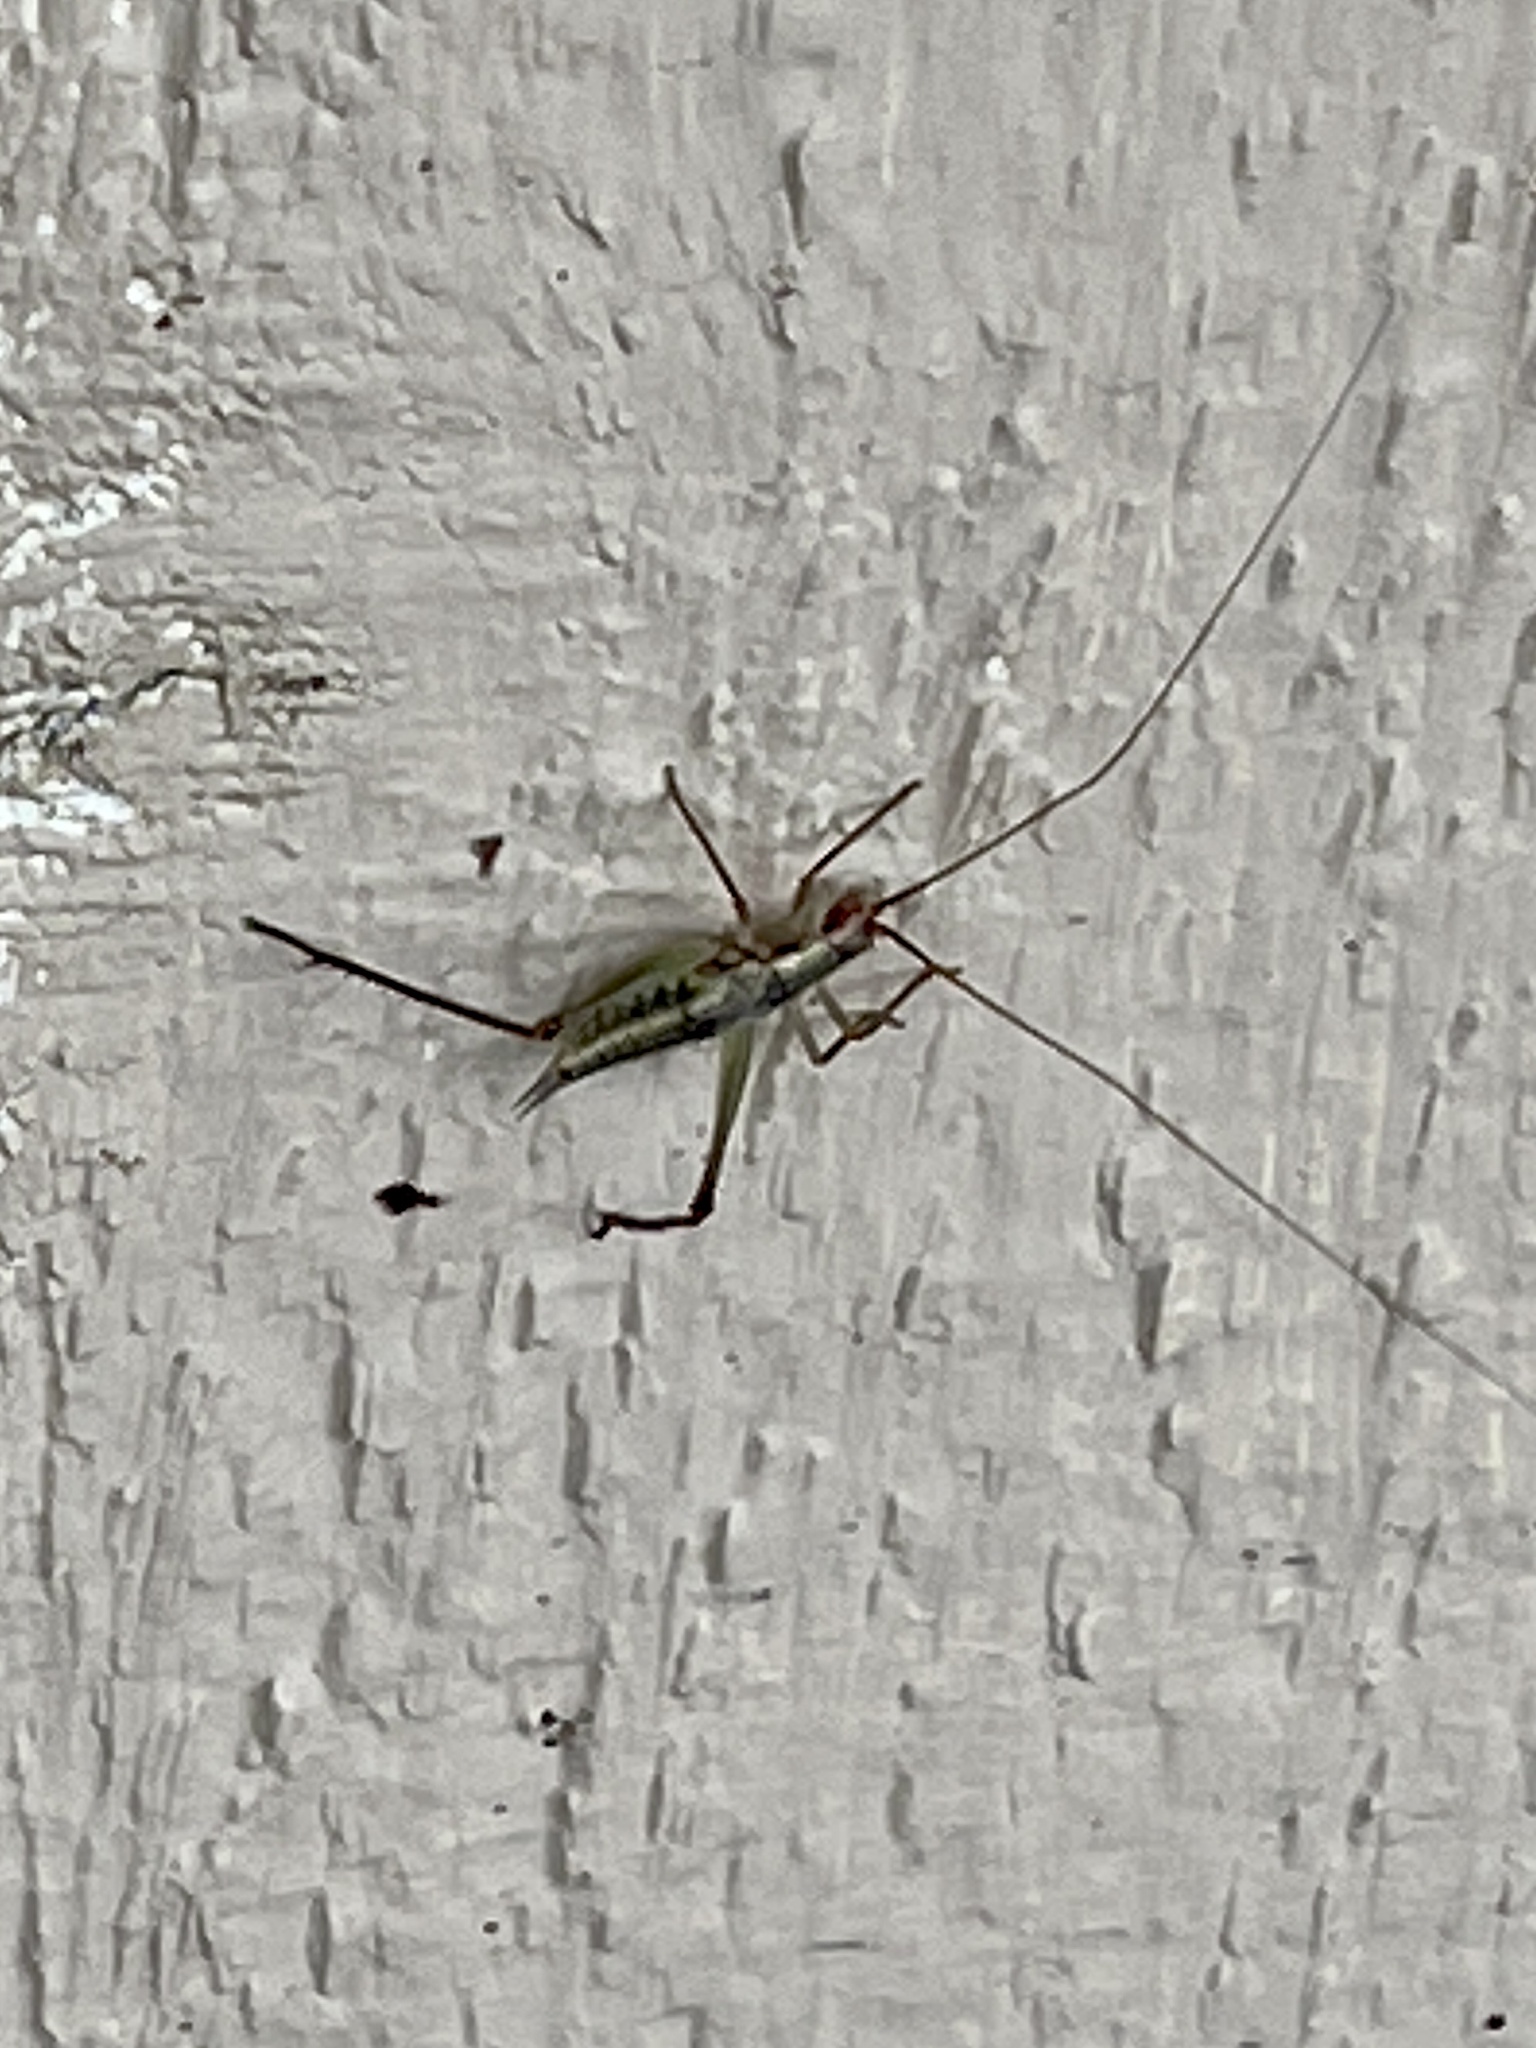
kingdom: Animalia
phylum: Arthropoda
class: Insecta
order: Orthoptera
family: Gryllidae
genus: Oecanthus
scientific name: Oecanthus californicus
